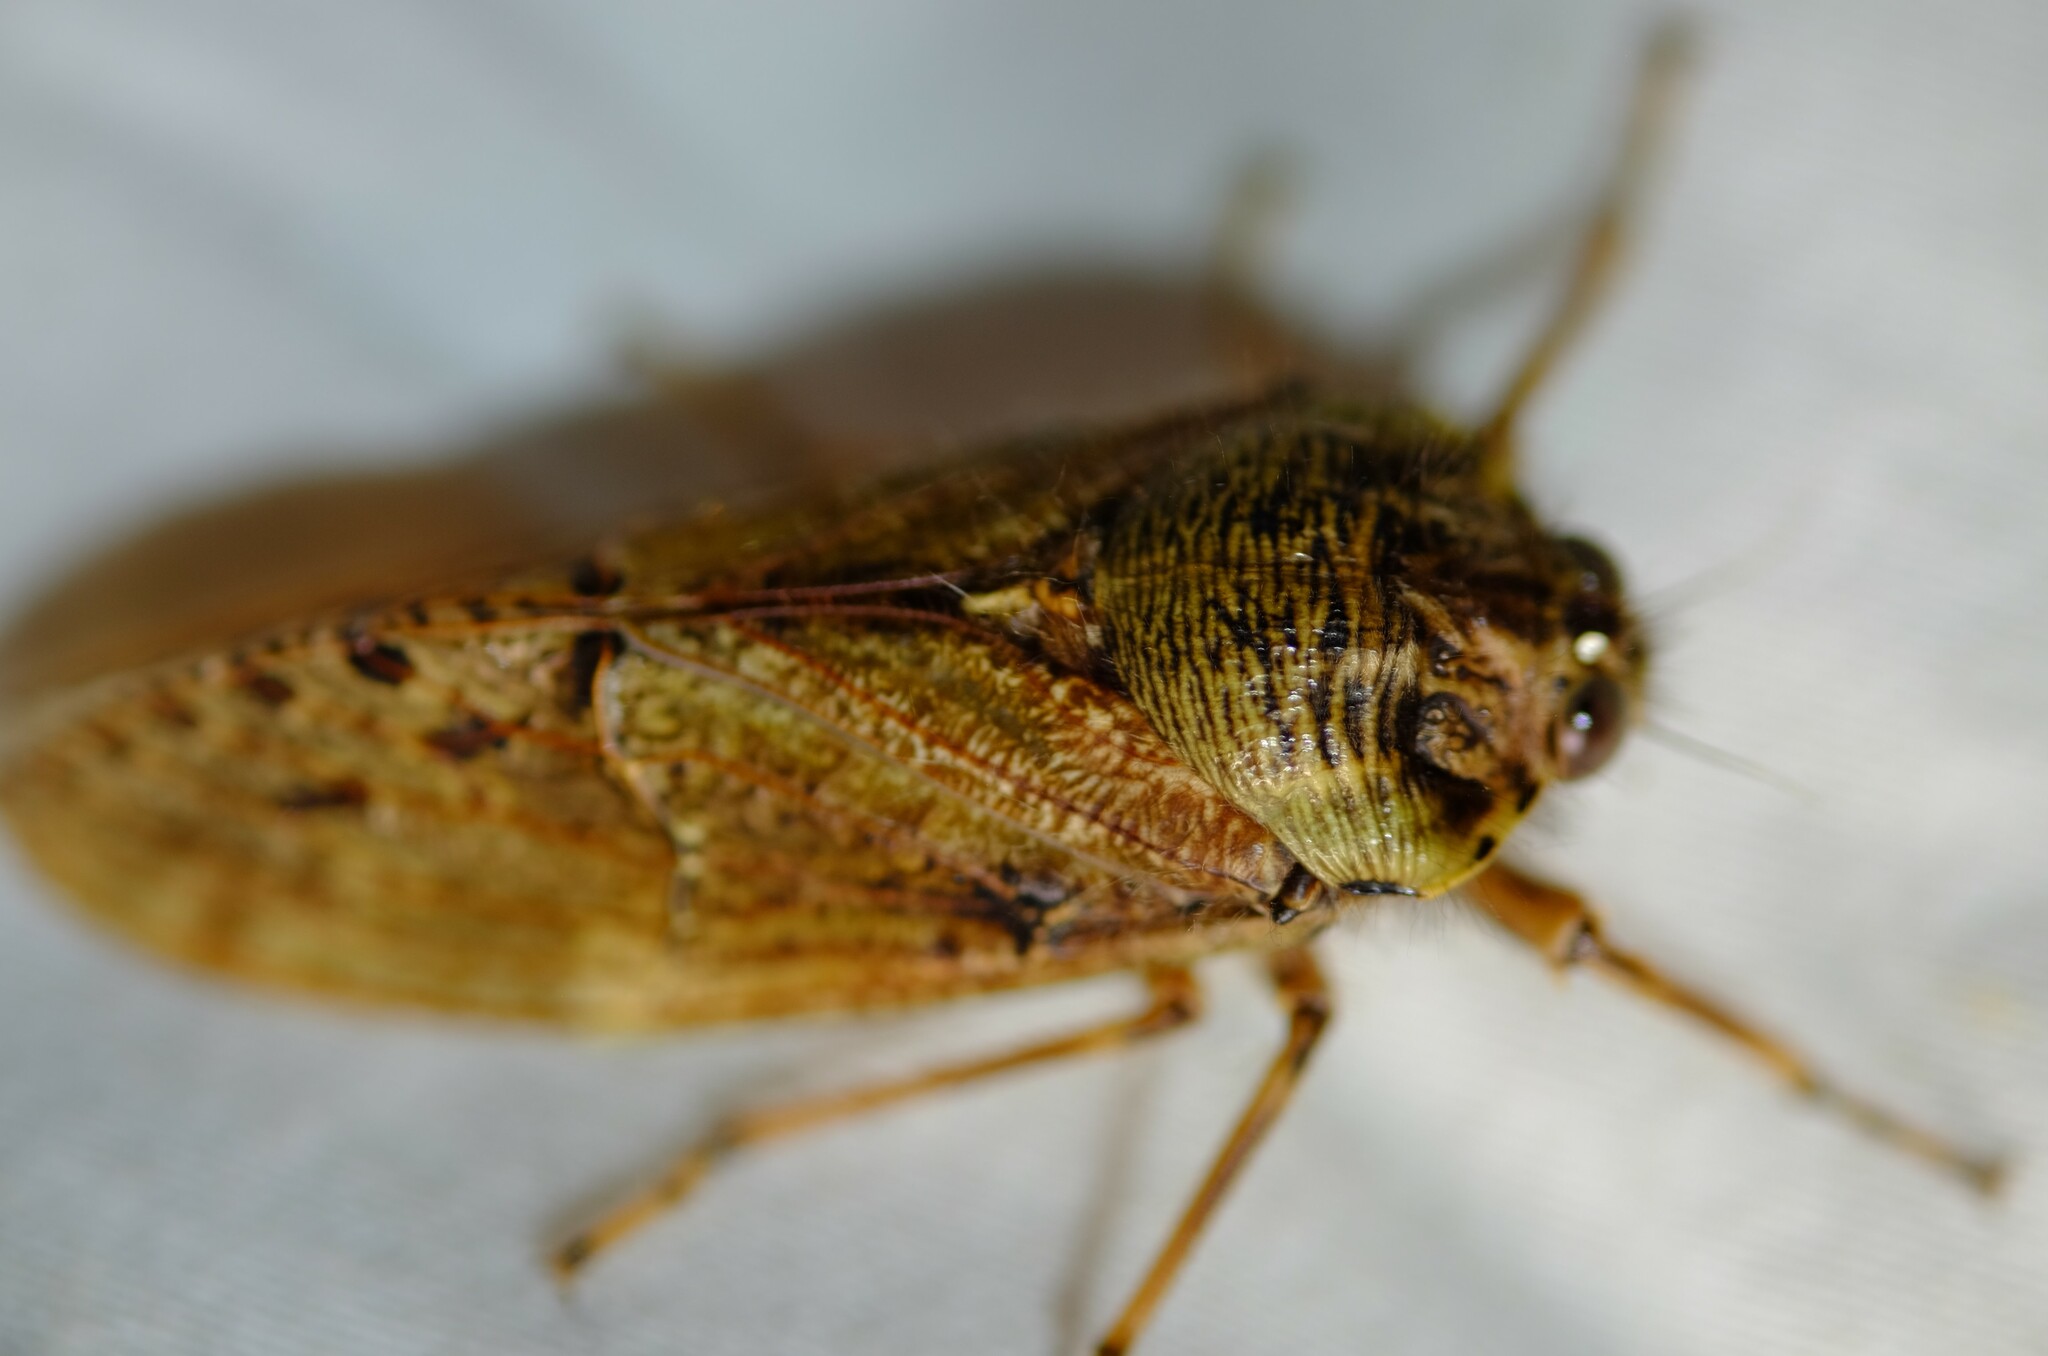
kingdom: Animalia
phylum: Arthropoda
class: Insecta
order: Hemiptera
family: Tettigarctidae
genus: Tettigarcta
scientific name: Tettigarcta crinita
